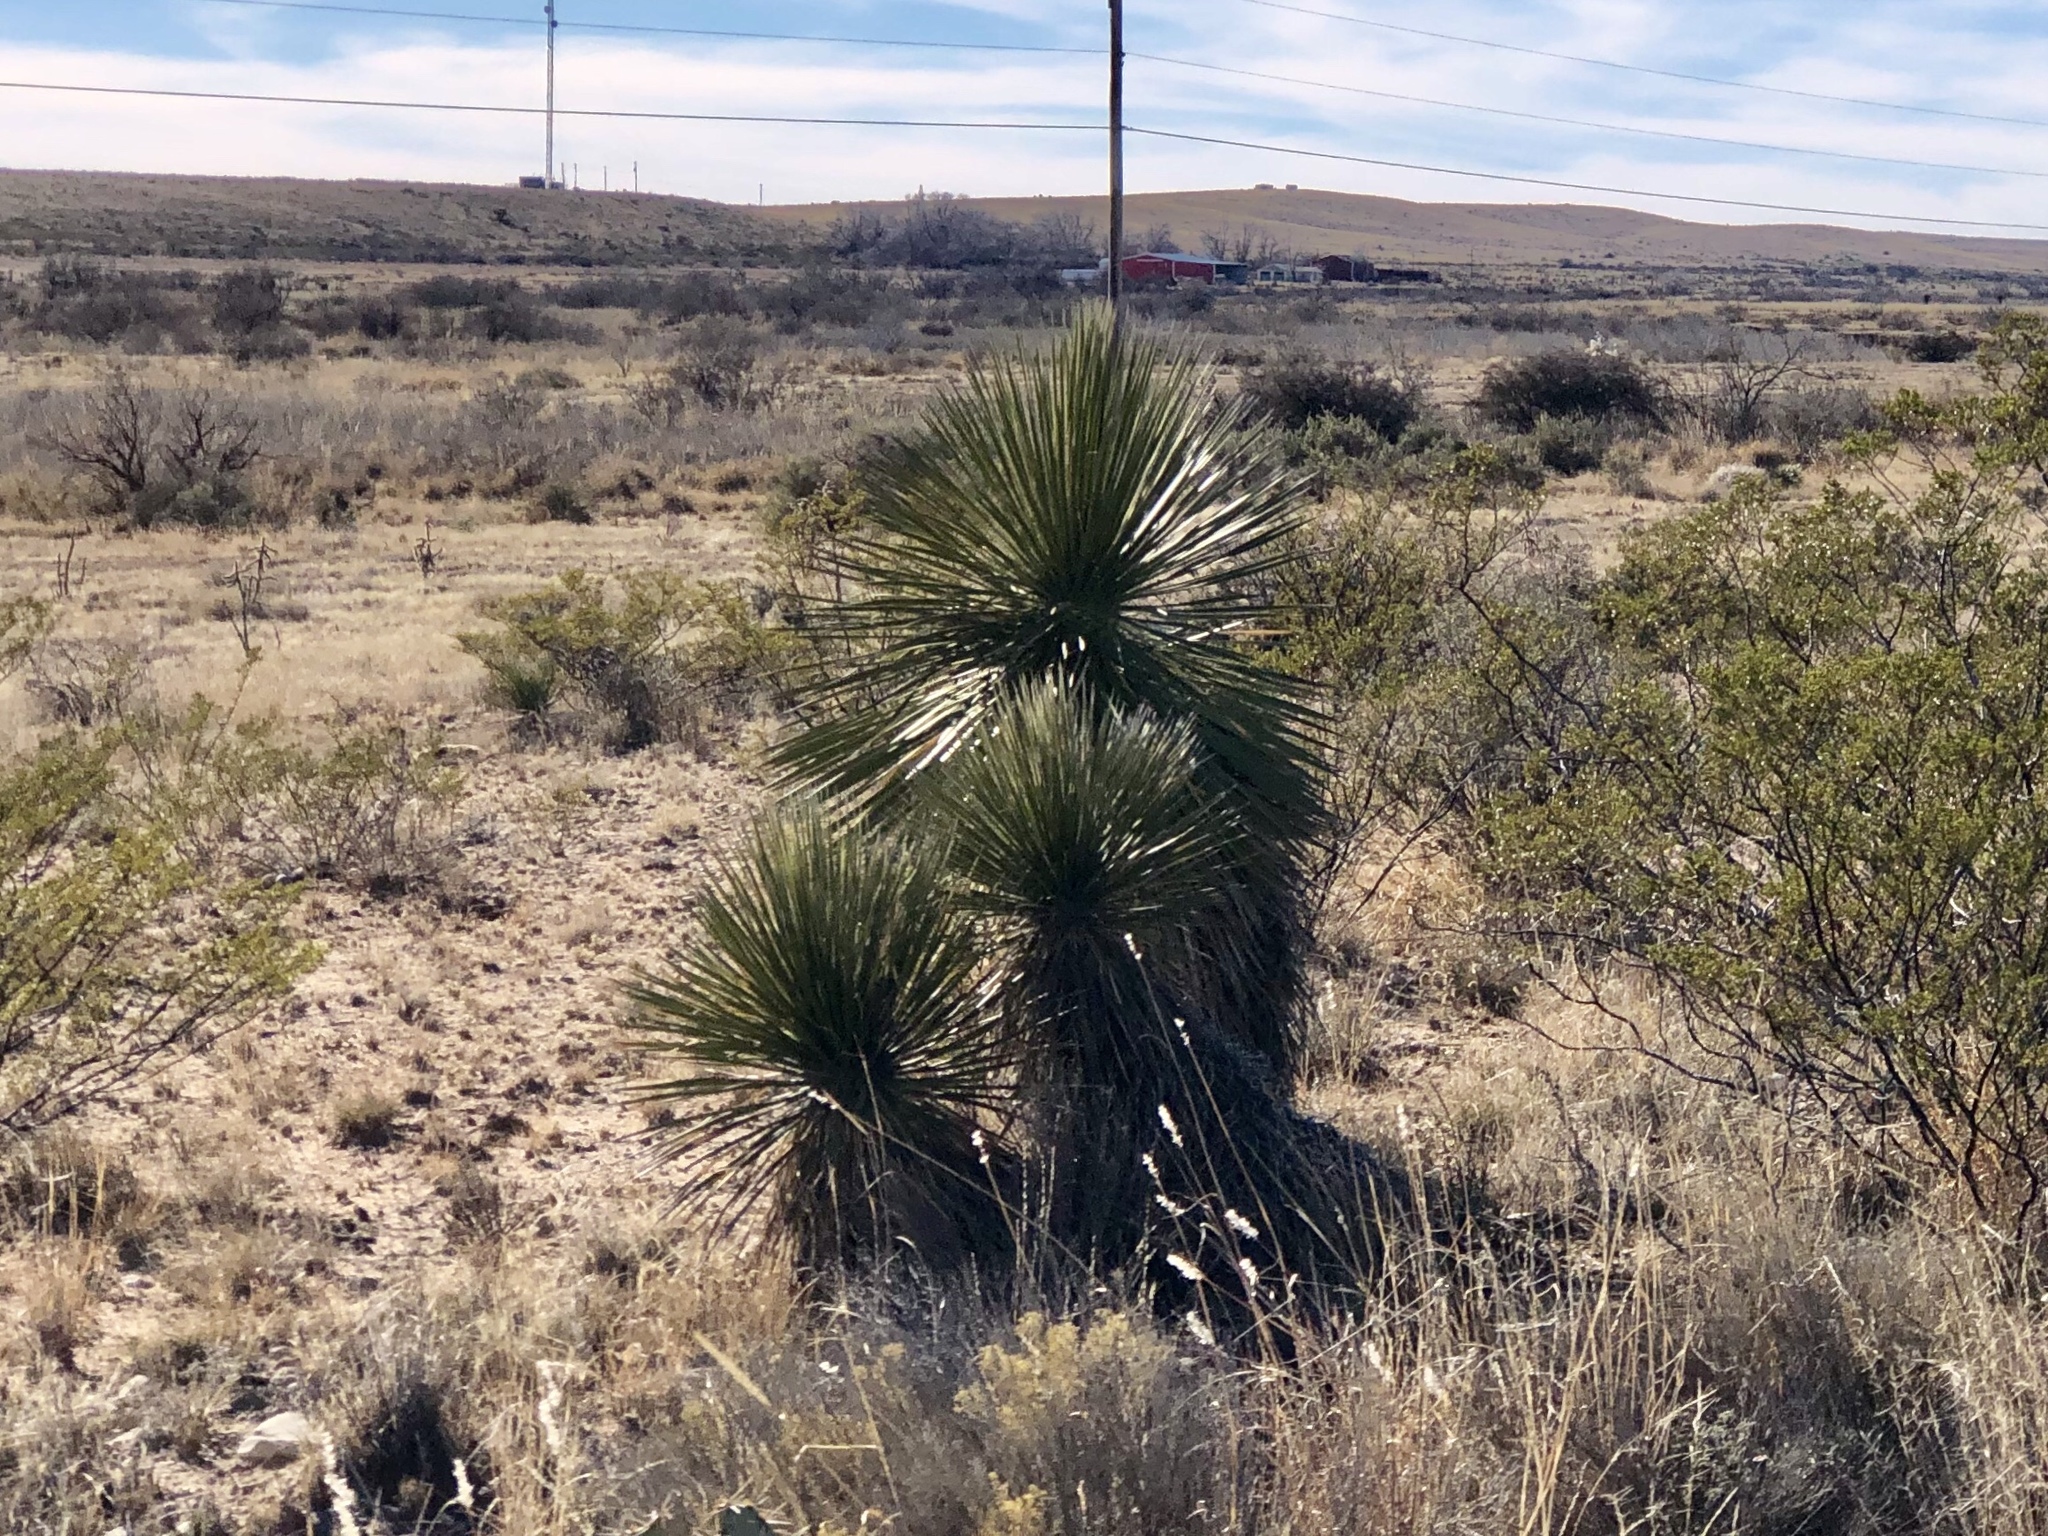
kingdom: Plantae
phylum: Tracheophyta
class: Liliopsida
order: Asparagales
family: Asparagaceae
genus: Yucca
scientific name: Yucca elata
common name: Palmella
